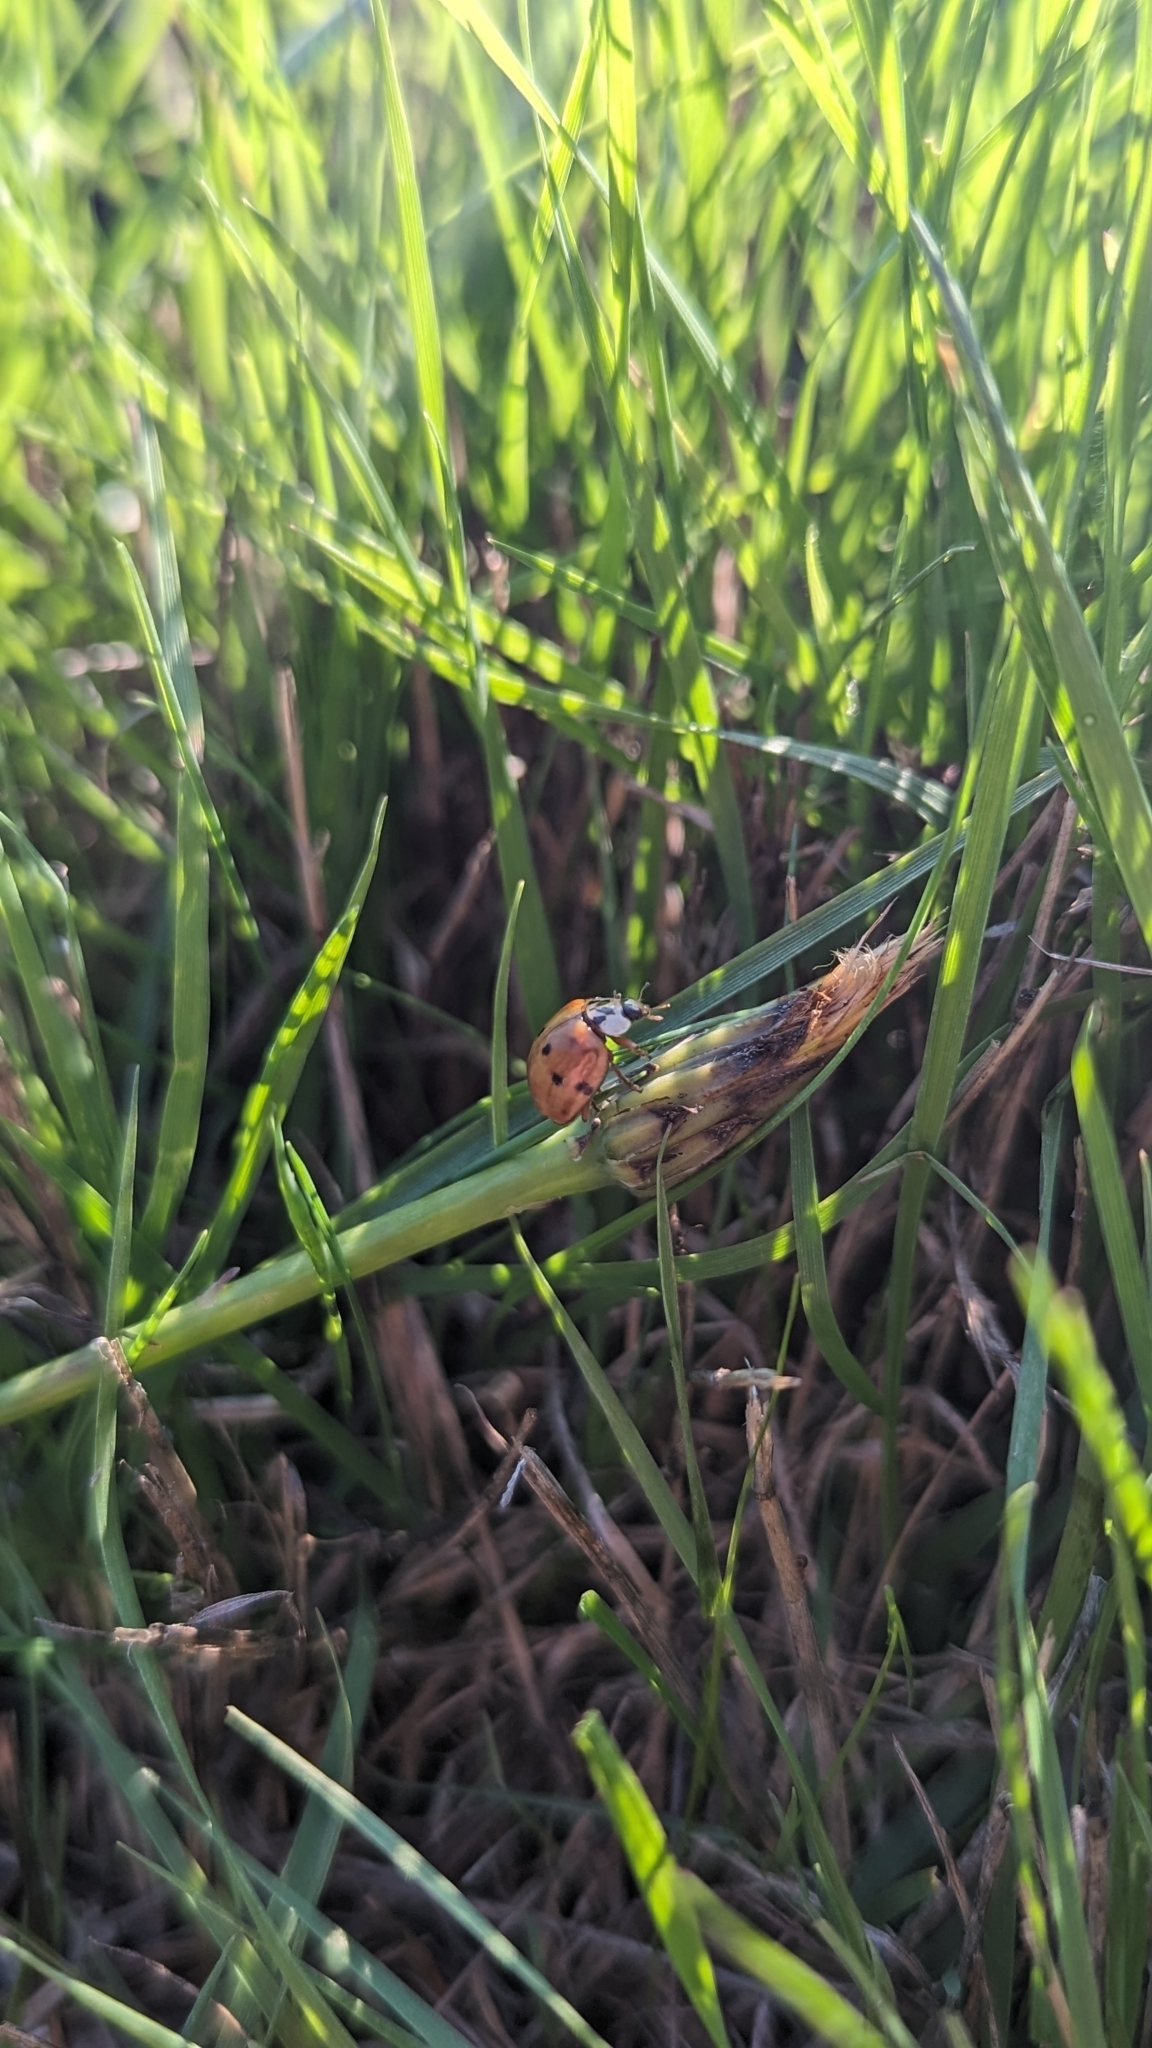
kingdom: Animalia
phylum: Arthropoda
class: Insecta
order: Coleoptera
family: Coccinellidae
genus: Harmonia
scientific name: Harmonia axyridis
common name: Harlequin ladybird
